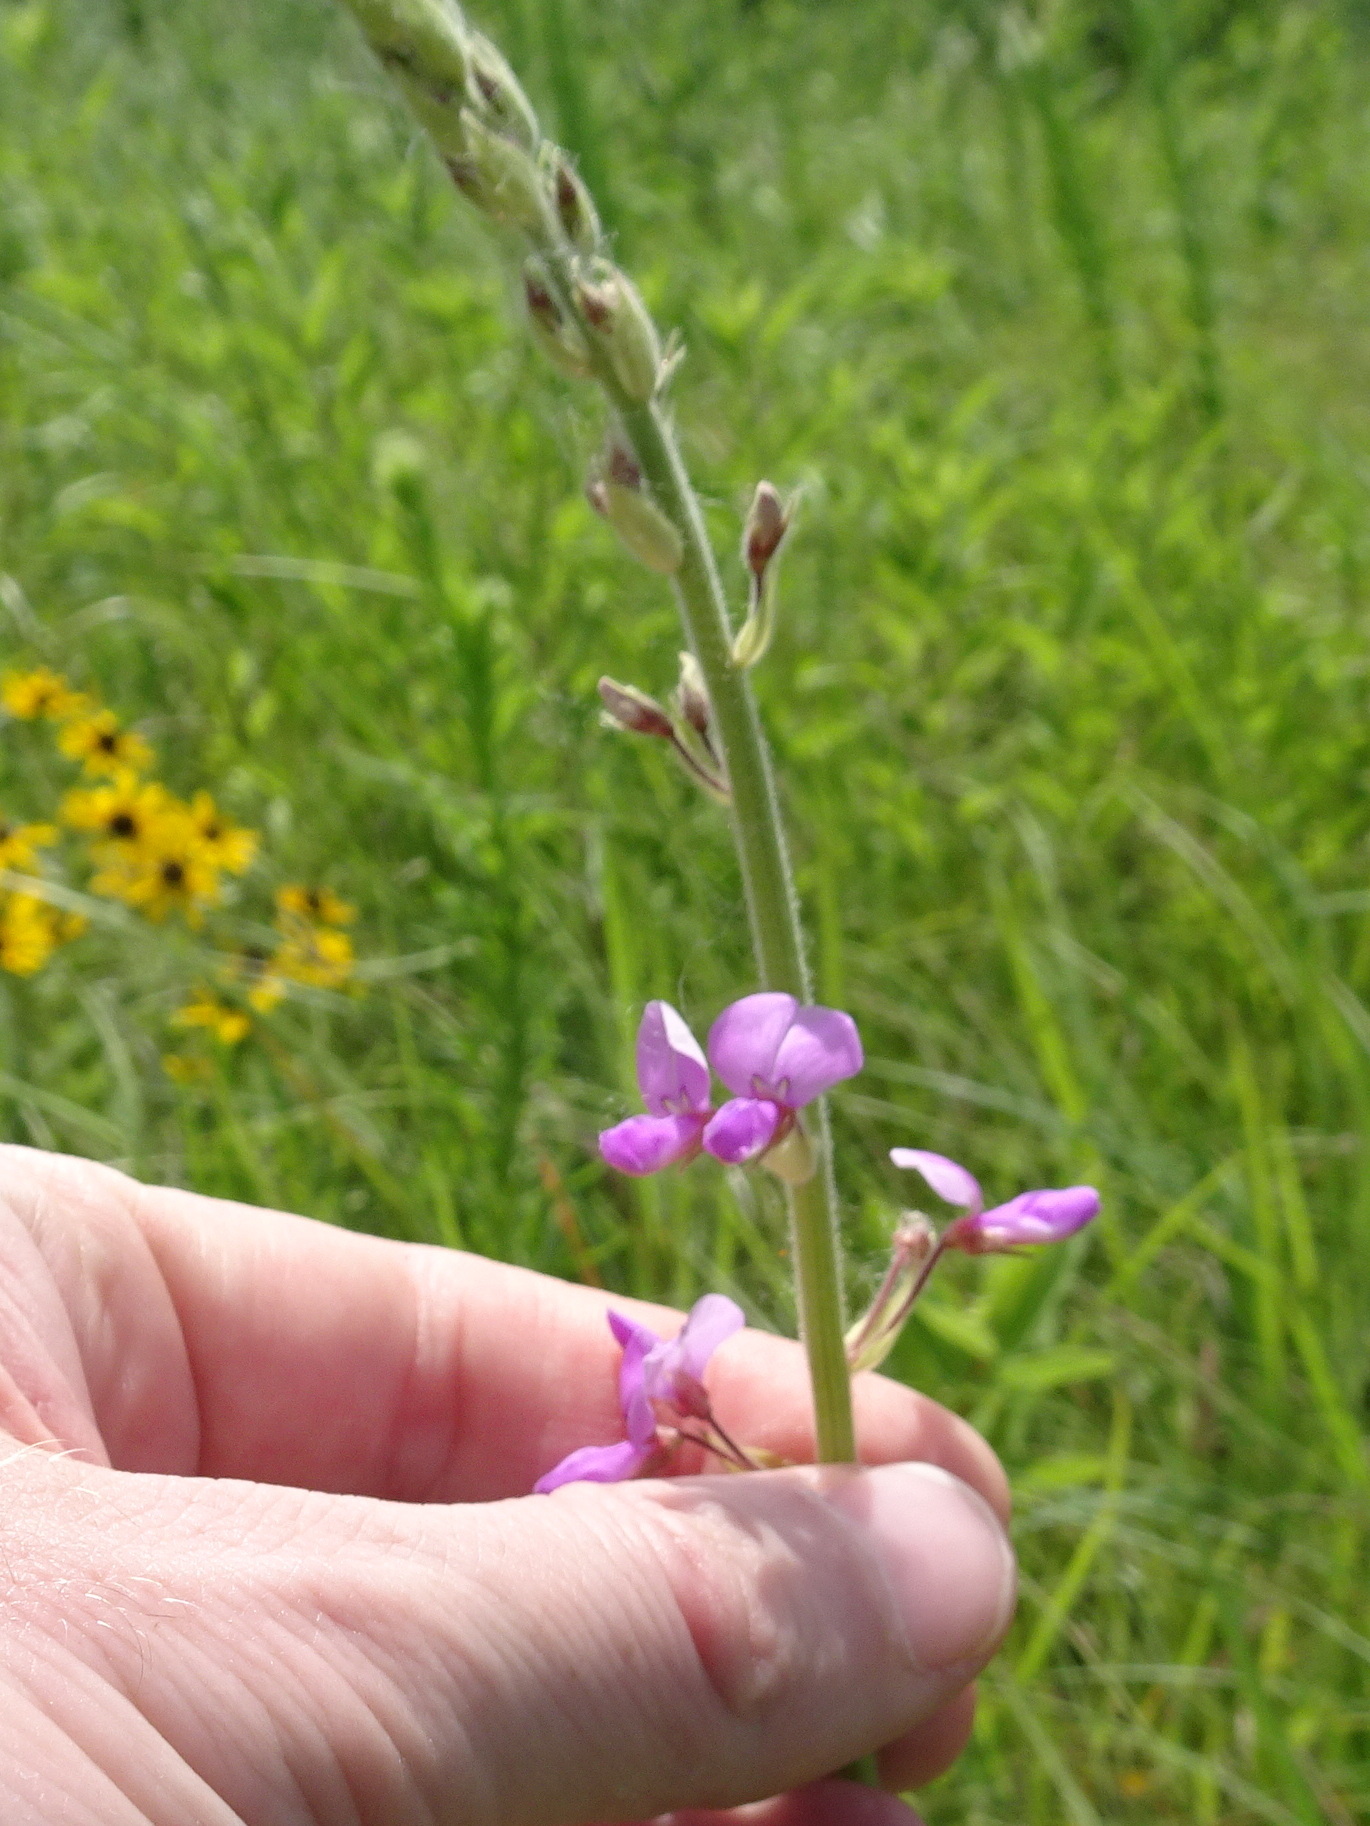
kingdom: Plantae
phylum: Tracheophyta
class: Magnoliopsida
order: Fabales
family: Fabaceae
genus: Desmodium
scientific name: Desmodium illinoense
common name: Illinois tick-clover
